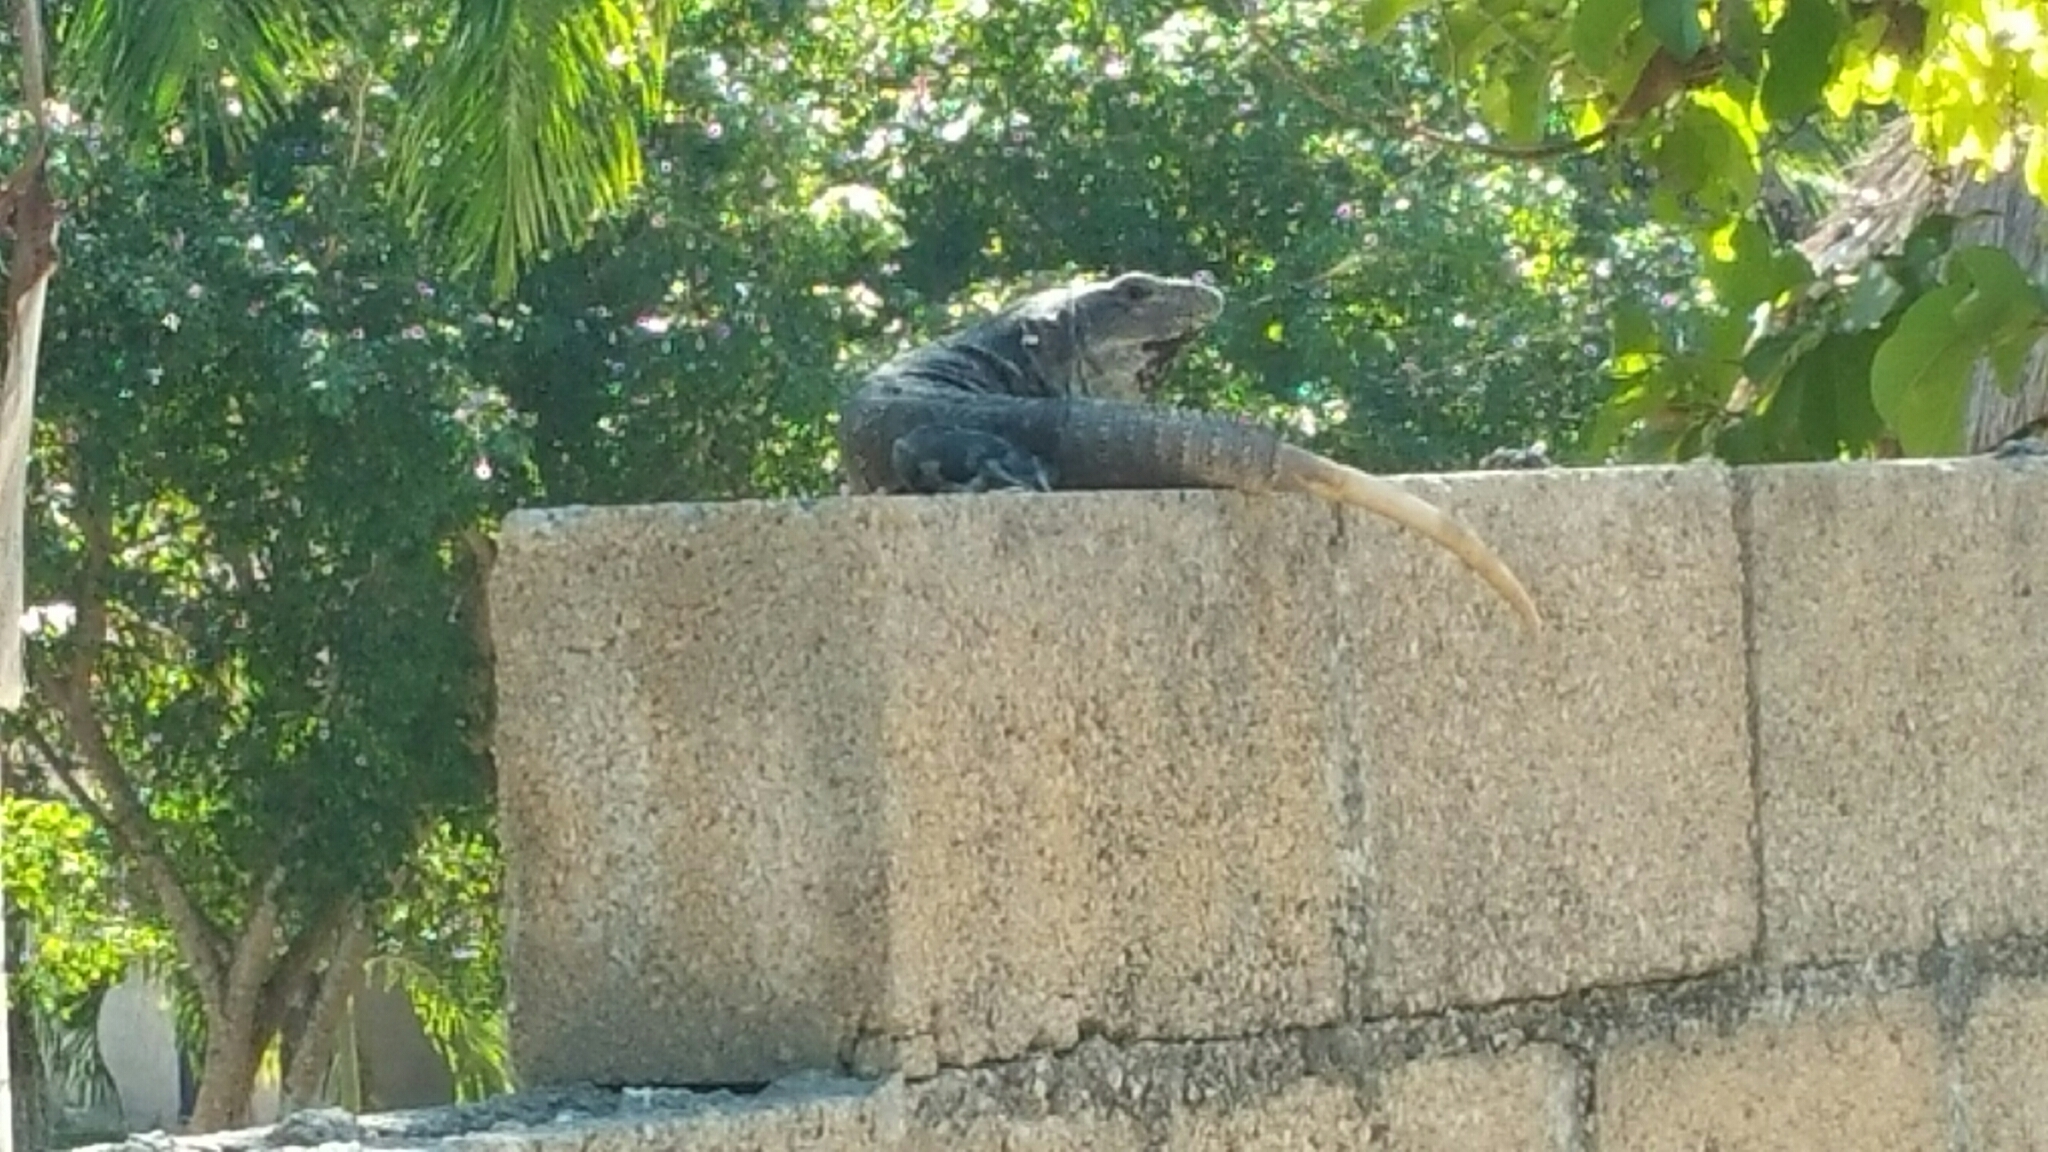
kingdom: Animalia
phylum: Chordata
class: Squamata
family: Iguanidae
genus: Ctenosaura
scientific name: Ctenosaura similis
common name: Black spiny-tailed iguana
